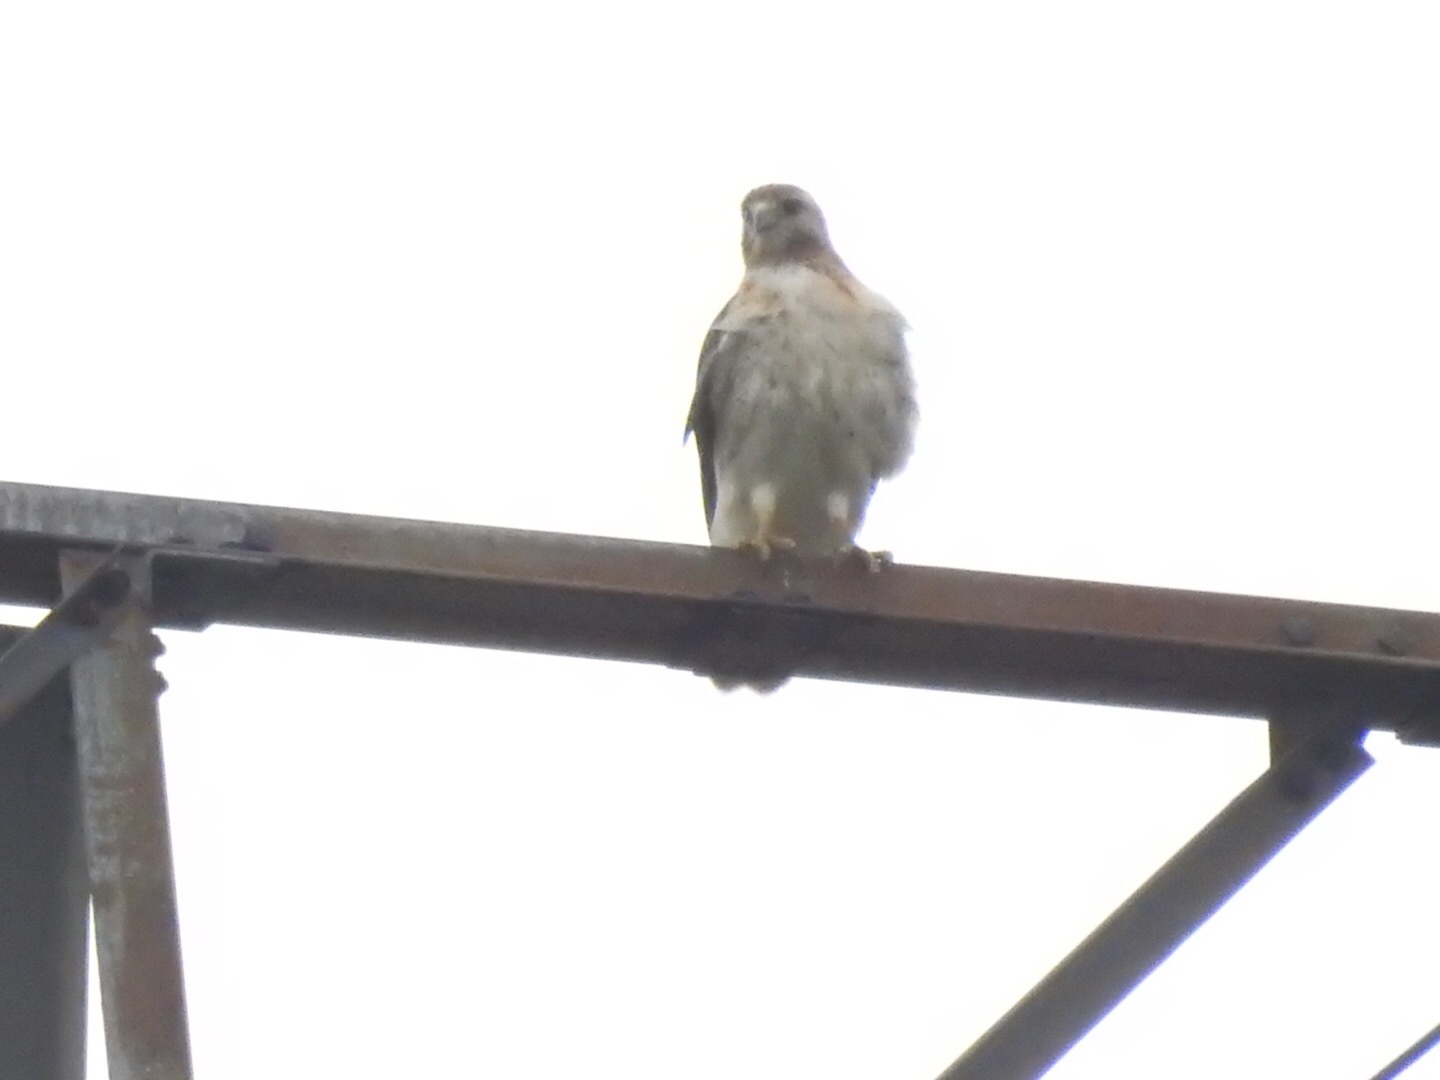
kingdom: Animalia
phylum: Chordata
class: Aves
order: Accipitriformes
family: Accipitridae
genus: Buteo
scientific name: Buteo jamaicensis
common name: Red-tailed hawk
